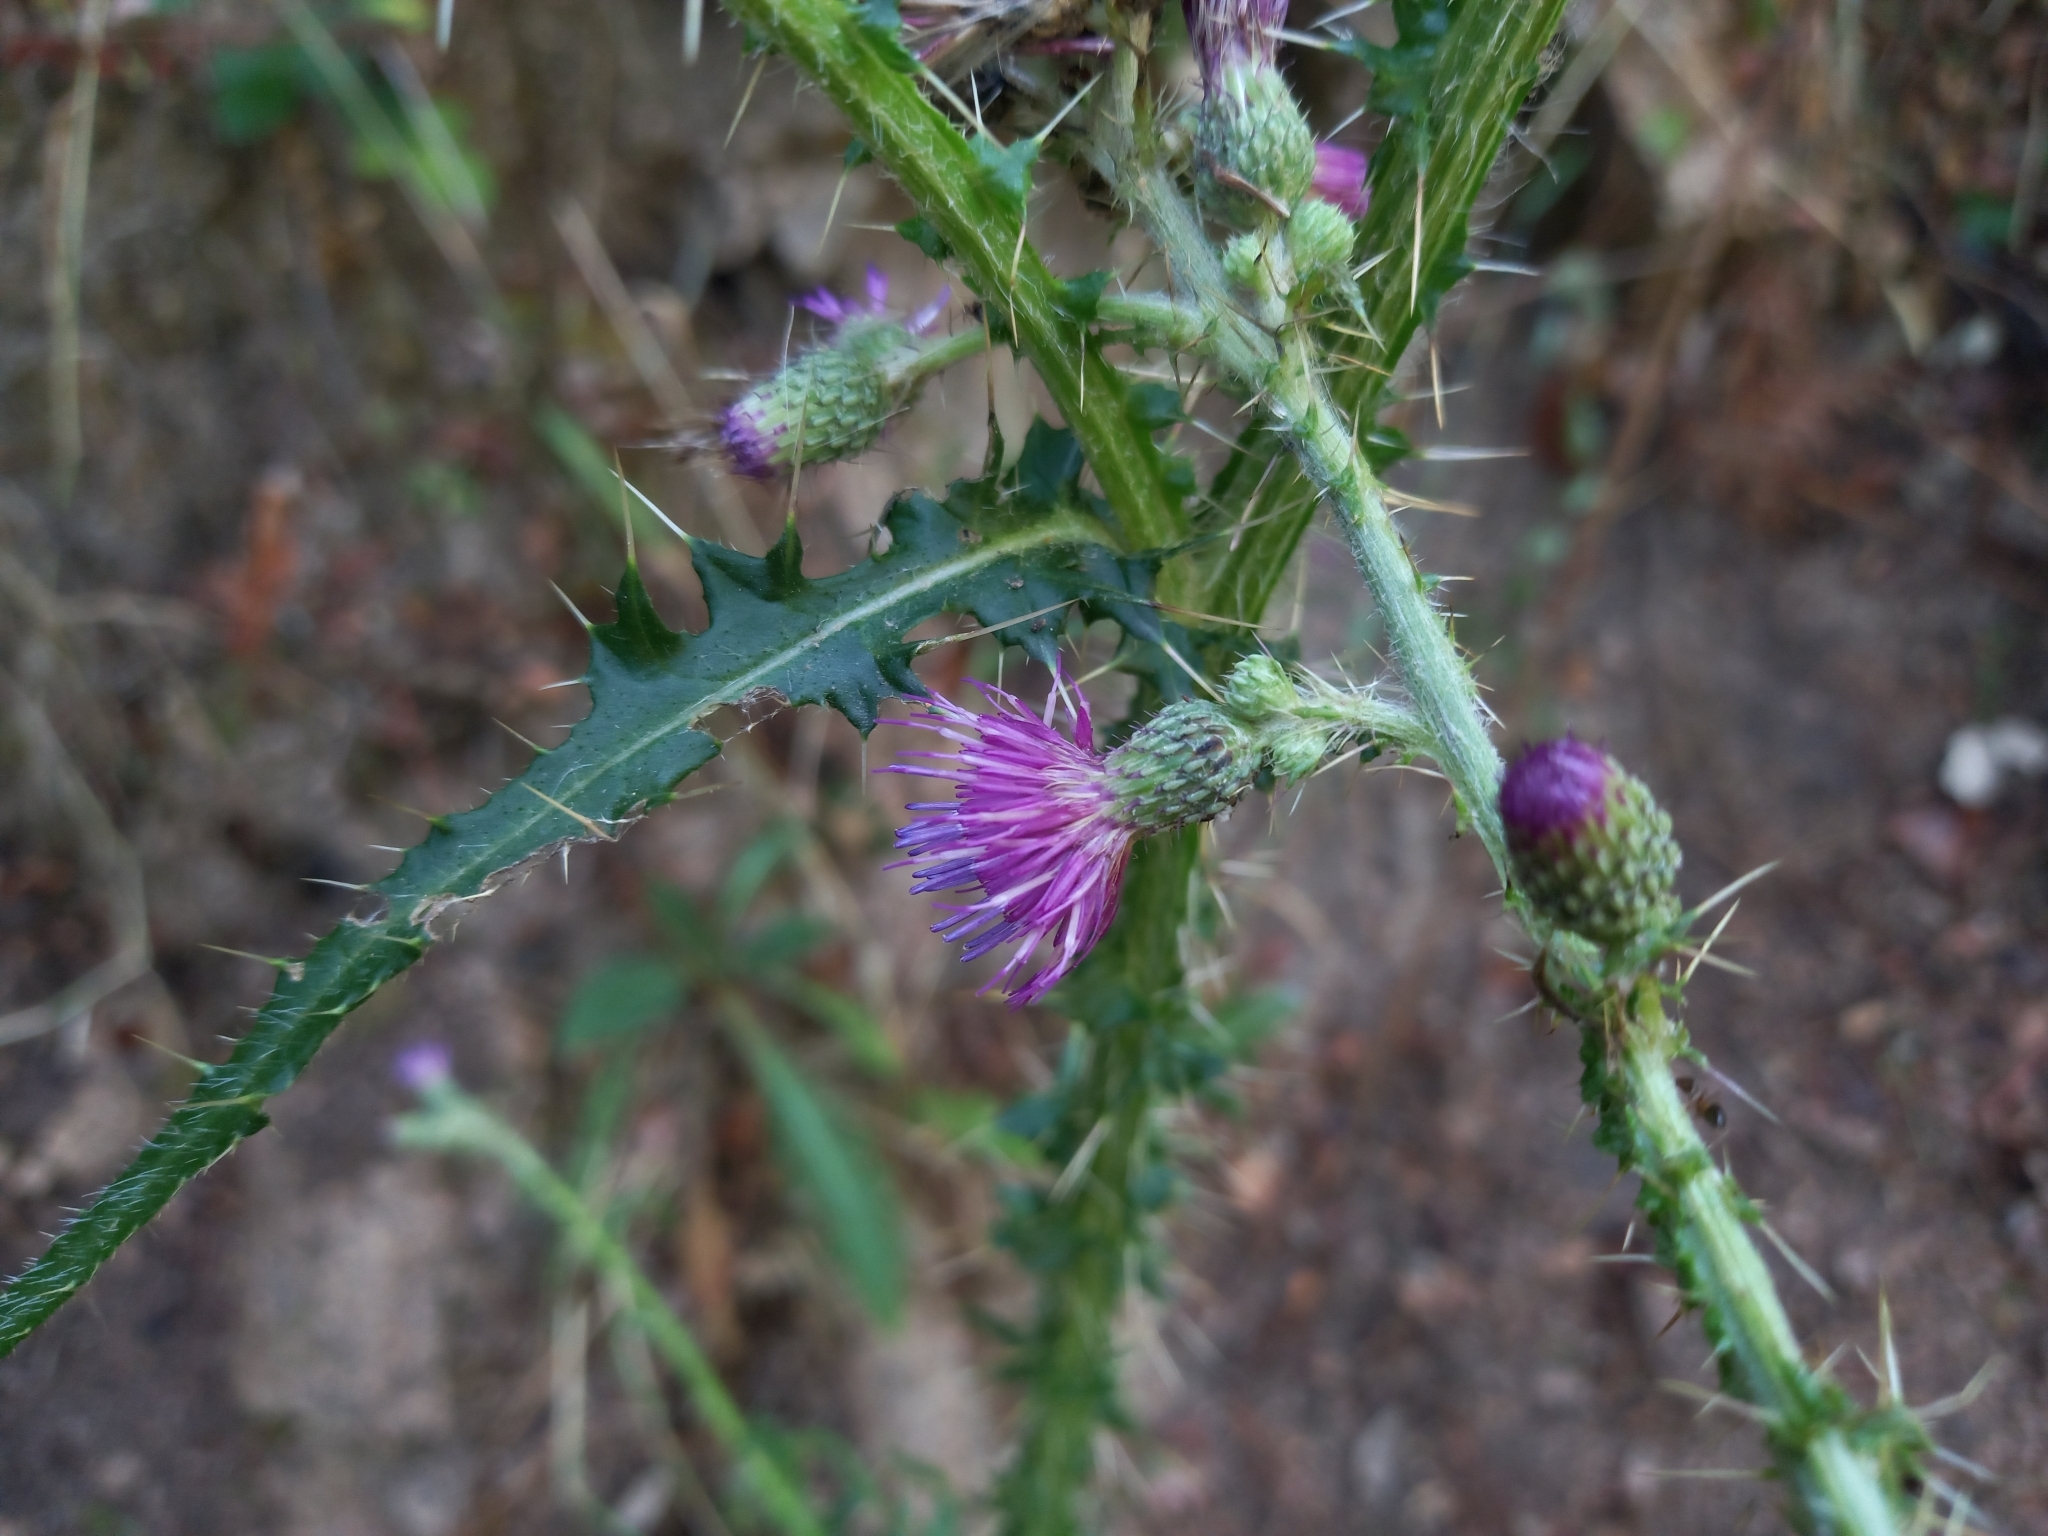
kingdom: Plantae
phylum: Tracheophyta
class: Magnoliopsida
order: Asterales
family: Asteraceae
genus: Cirsium
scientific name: Cirsium palustre
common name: Marsh thistle
